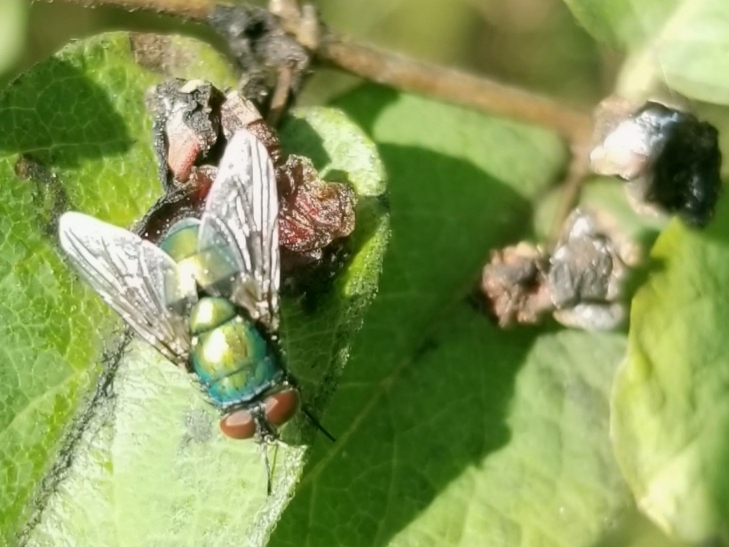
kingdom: Animalia
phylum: Arthropoda
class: Insecta
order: Diptera
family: Calliphoridae
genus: Lucilia
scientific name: Lucilia sericata
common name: Blow fly
